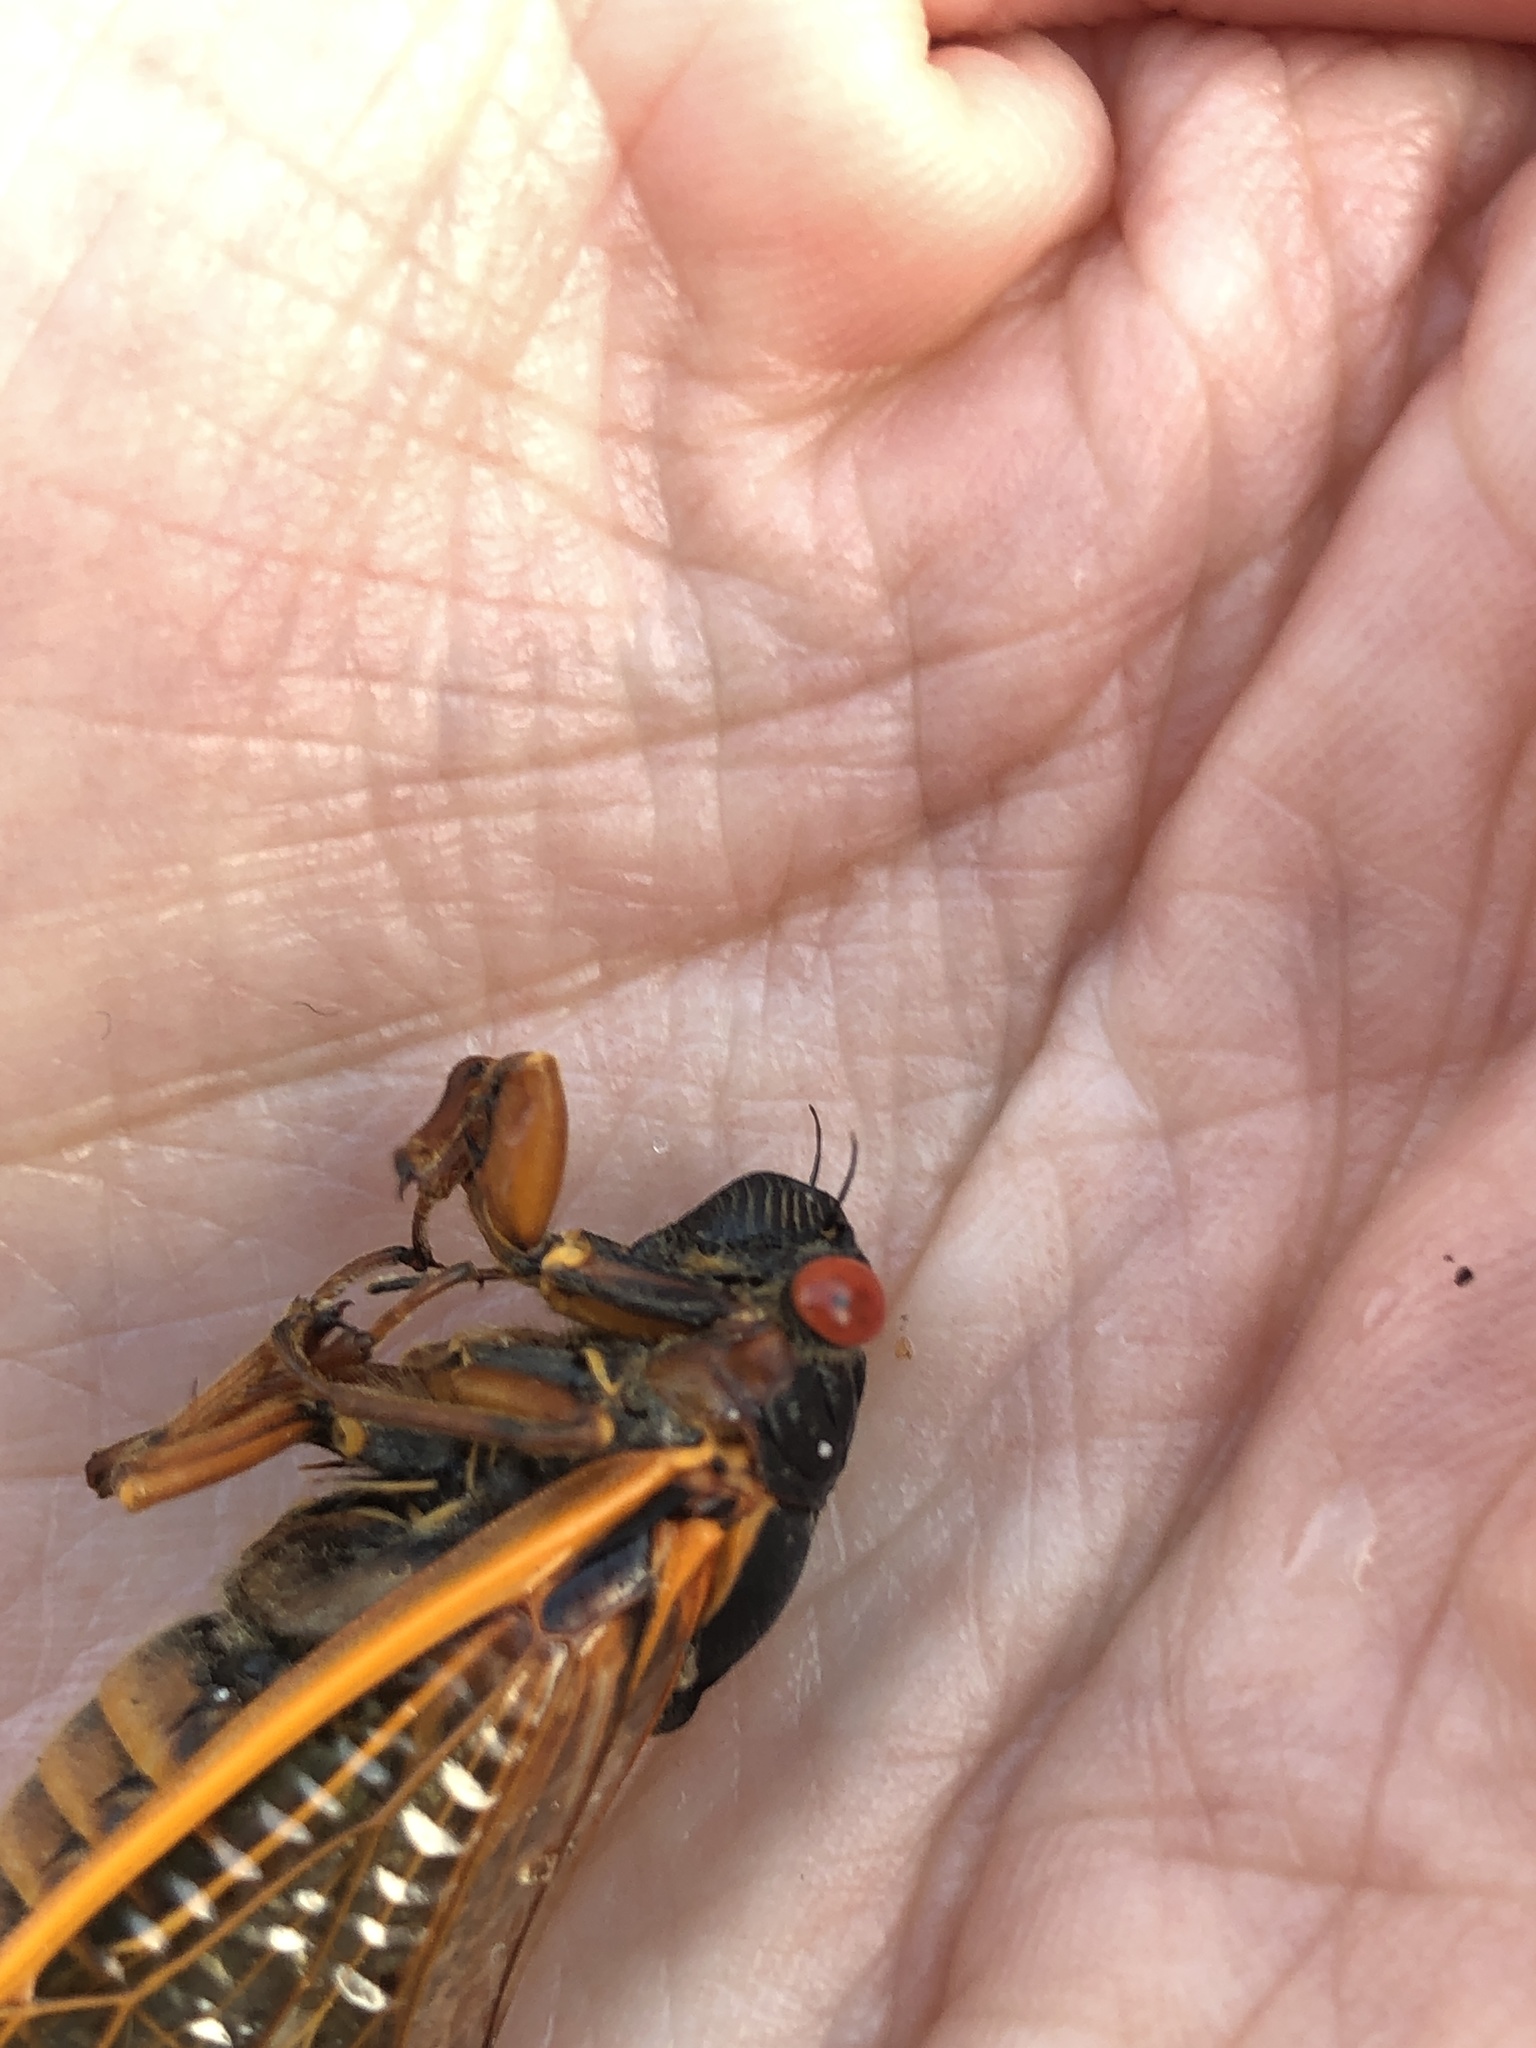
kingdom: Animalia
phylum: Arthropoda
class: Insecta
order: Hemiptera
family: Cicadidae
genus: Magicicada
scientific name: Magicicada septendecim
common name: Periodical cicada
